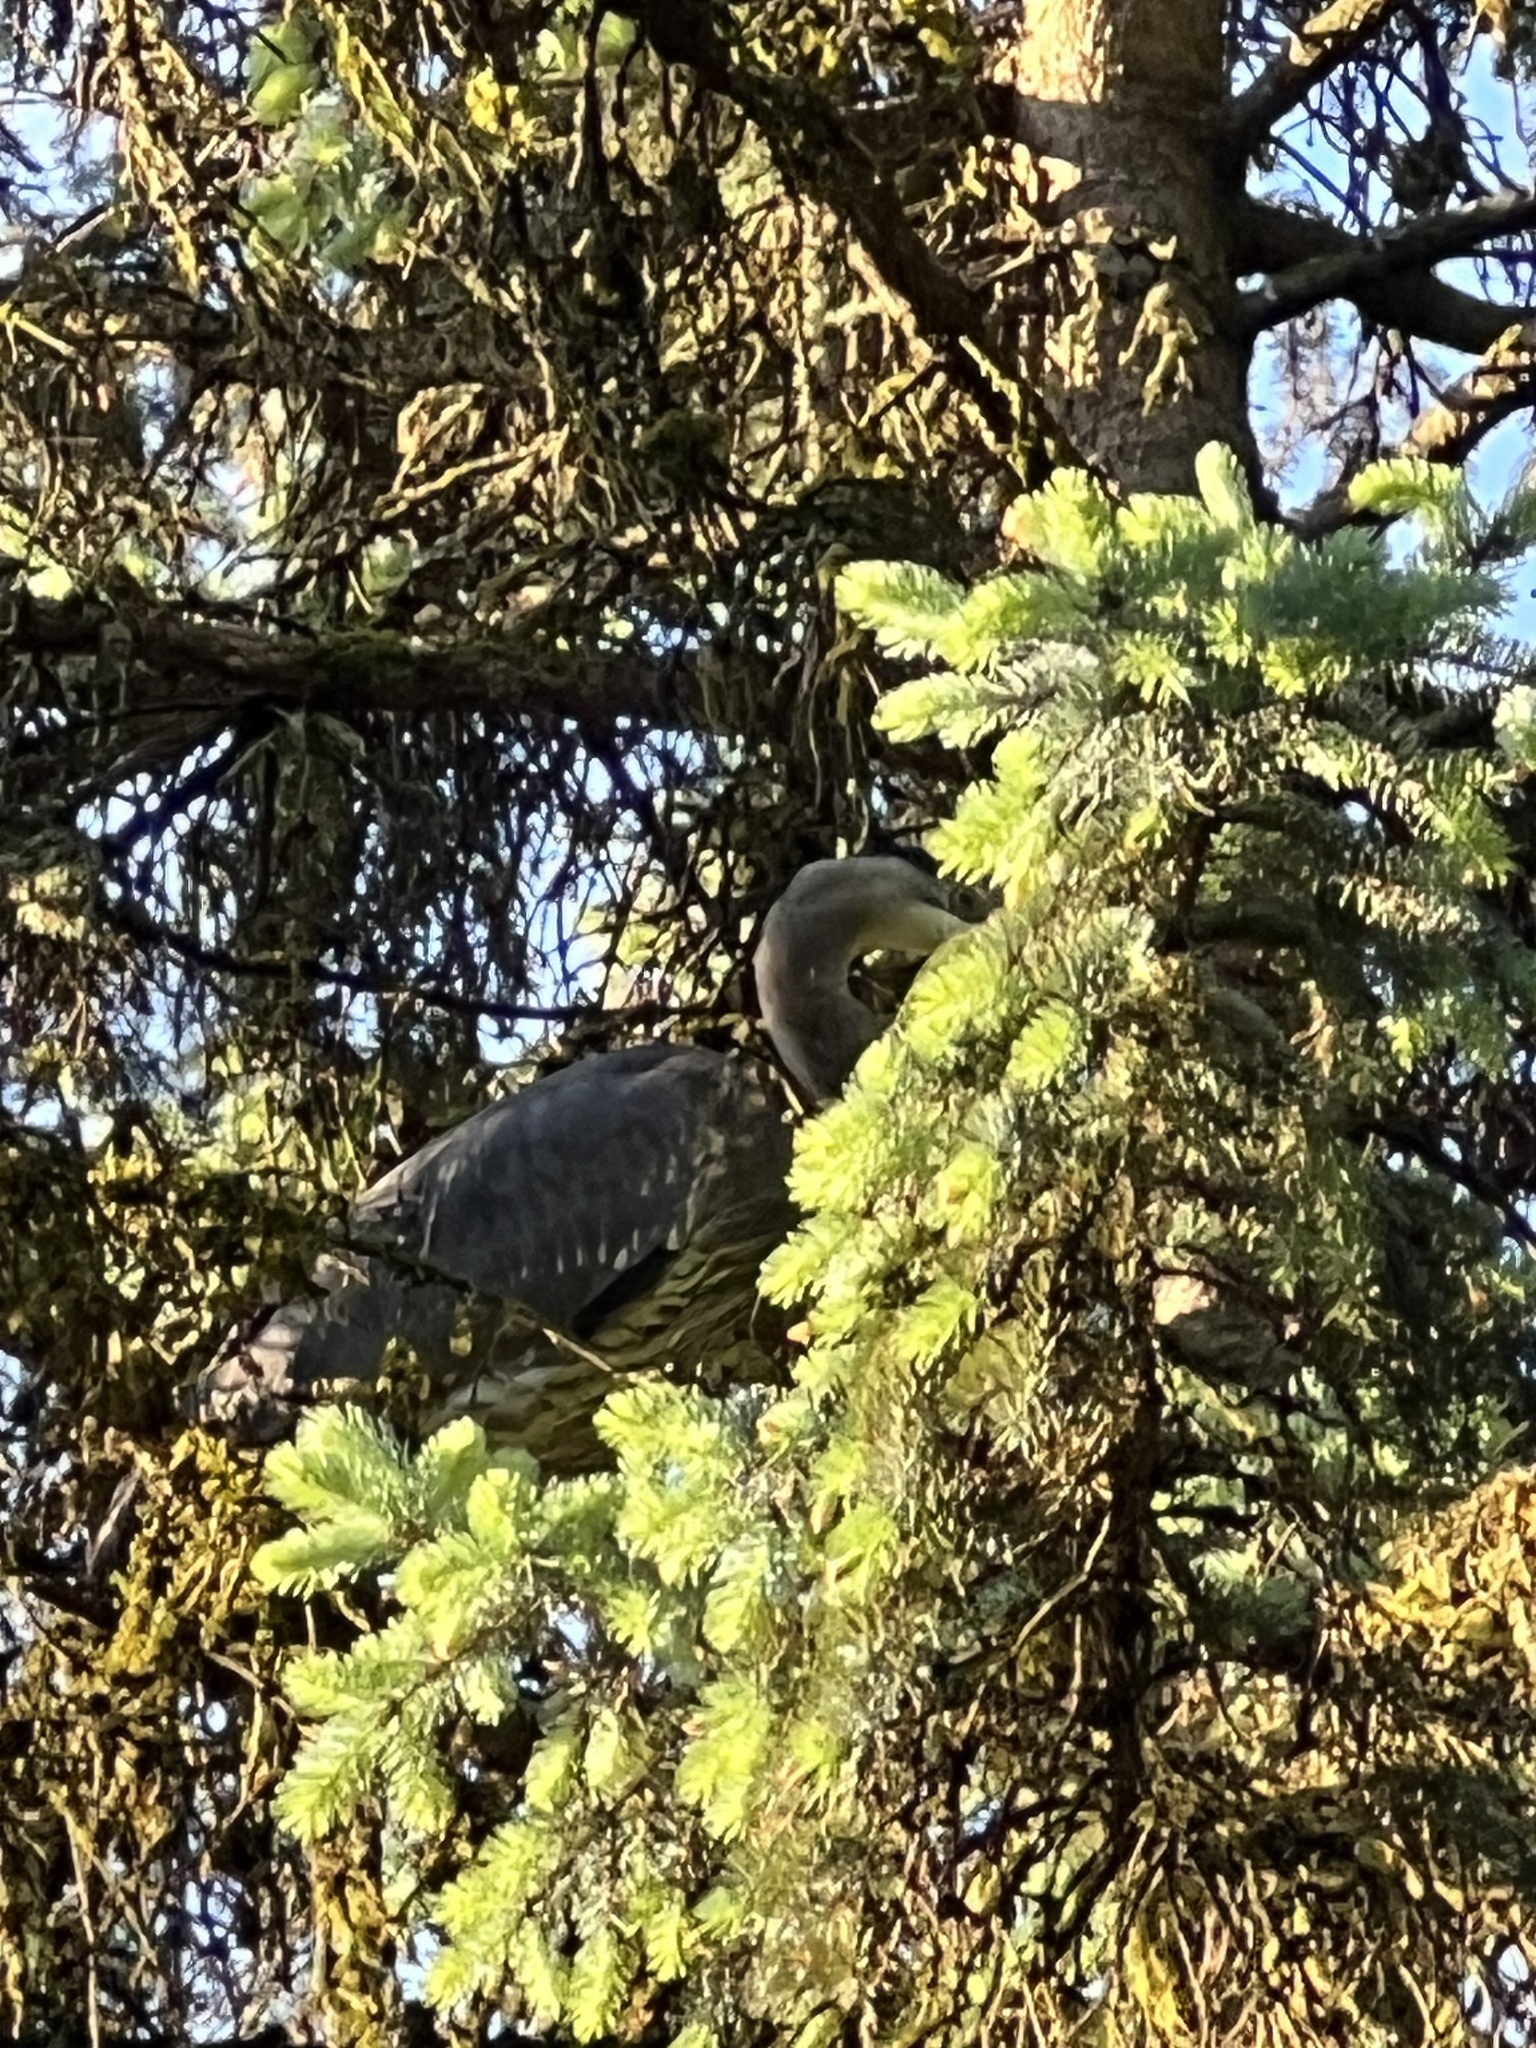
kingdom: Animalia
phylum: Chordata
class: Aves
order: Pelecaniformes
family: Ardeidae
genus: Ardea
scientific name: Ardea herodias
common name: Great blue heron
